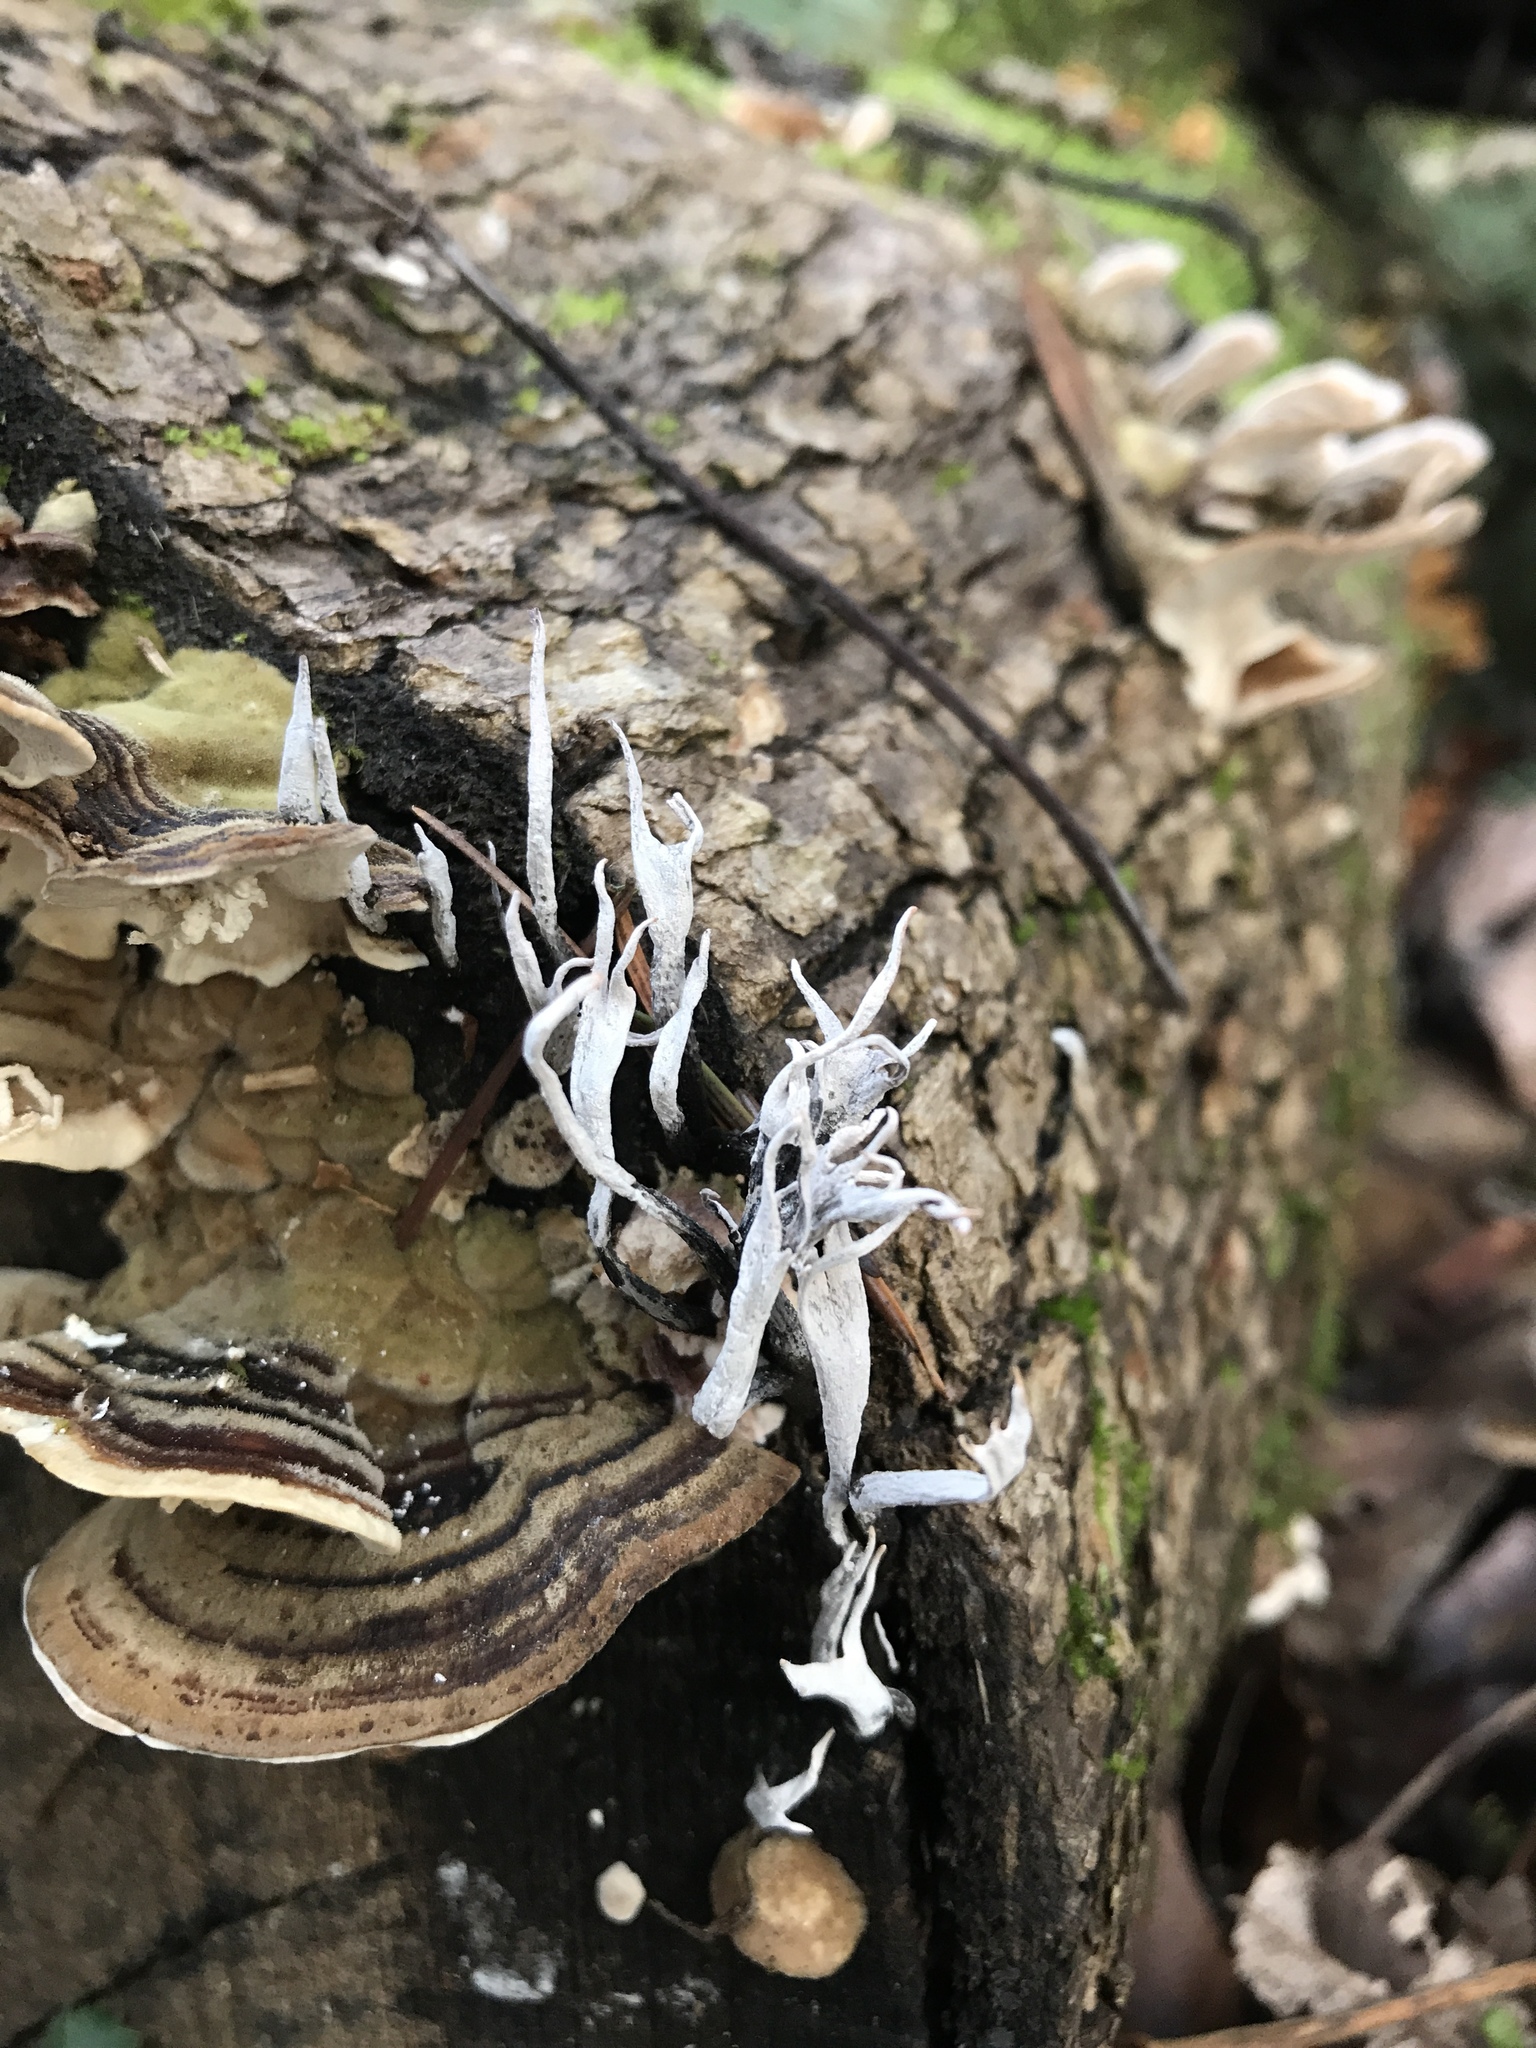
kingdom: Fungi
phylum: Ascomycota
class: Sordariomycetes
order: Xylariales
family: Xylariaceae
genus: Xylaria
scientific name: Xylaria hypoxylon
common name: Candle-snuff fungus
